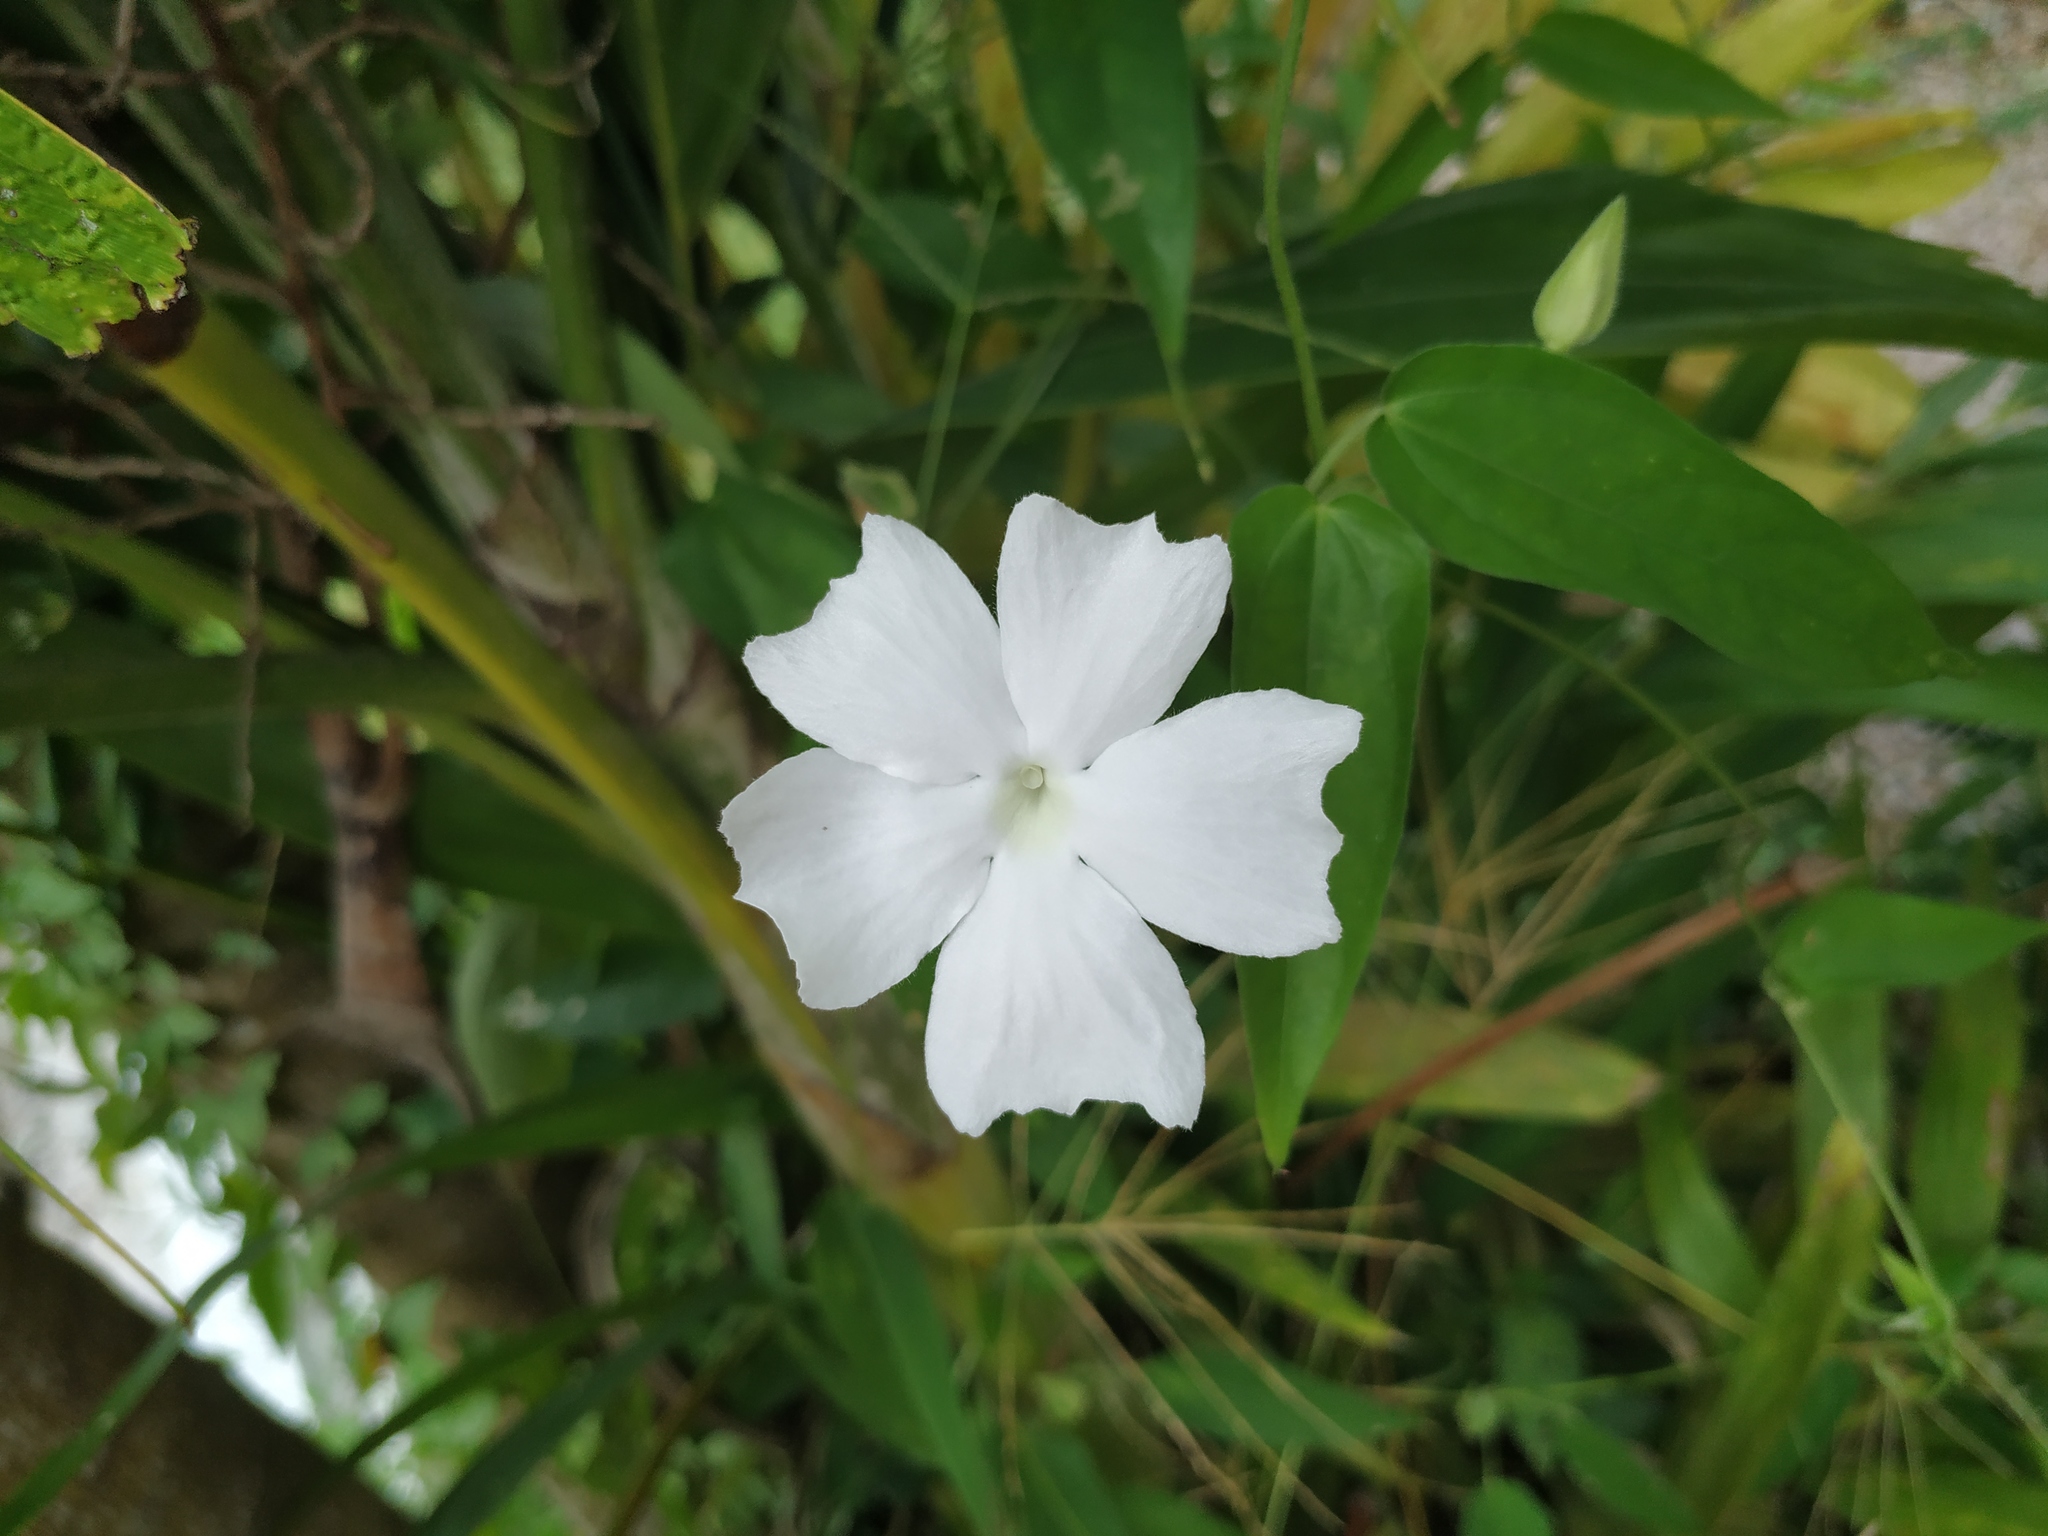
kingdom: Plantae
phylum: Tracheophyta
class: Magnoliopsida
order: Lamiales
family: Acanthaceae
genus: Thunbergia
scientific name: Thunbergia fragrans
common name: Whitelady
